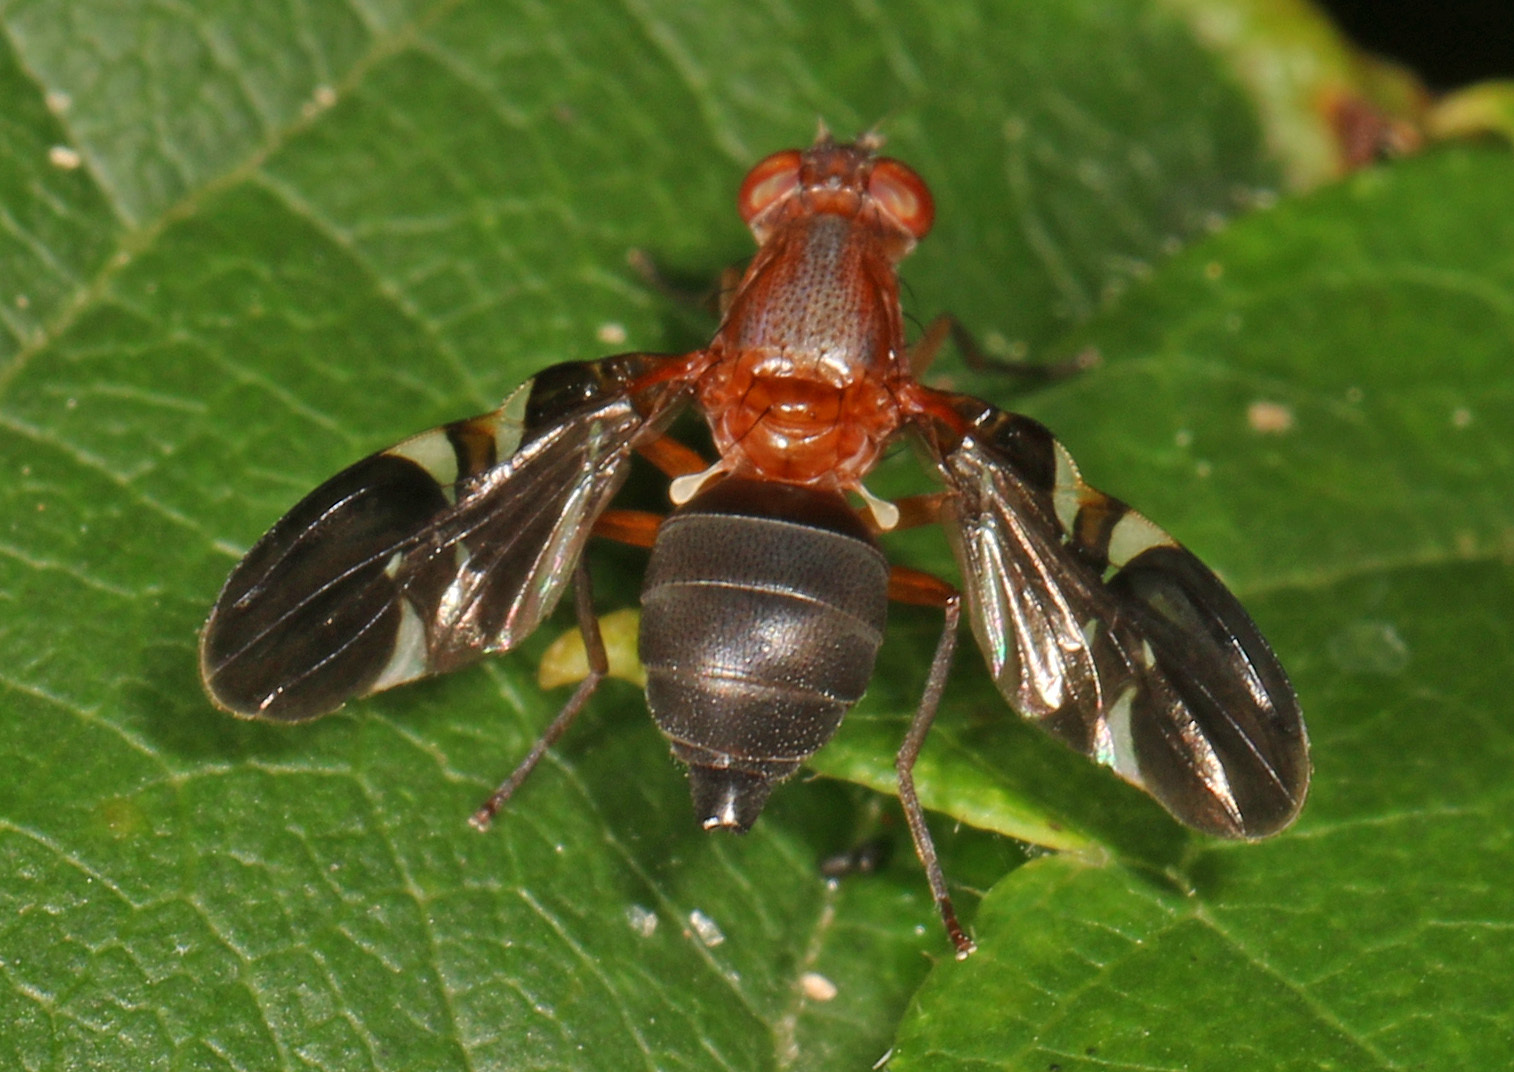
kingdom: Animalia
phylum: Arthropoda
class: Insecta
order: Diptera
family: Ulidiidae
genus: Delphinia
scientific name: Delphinia picta
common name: Common picture-winged fly
